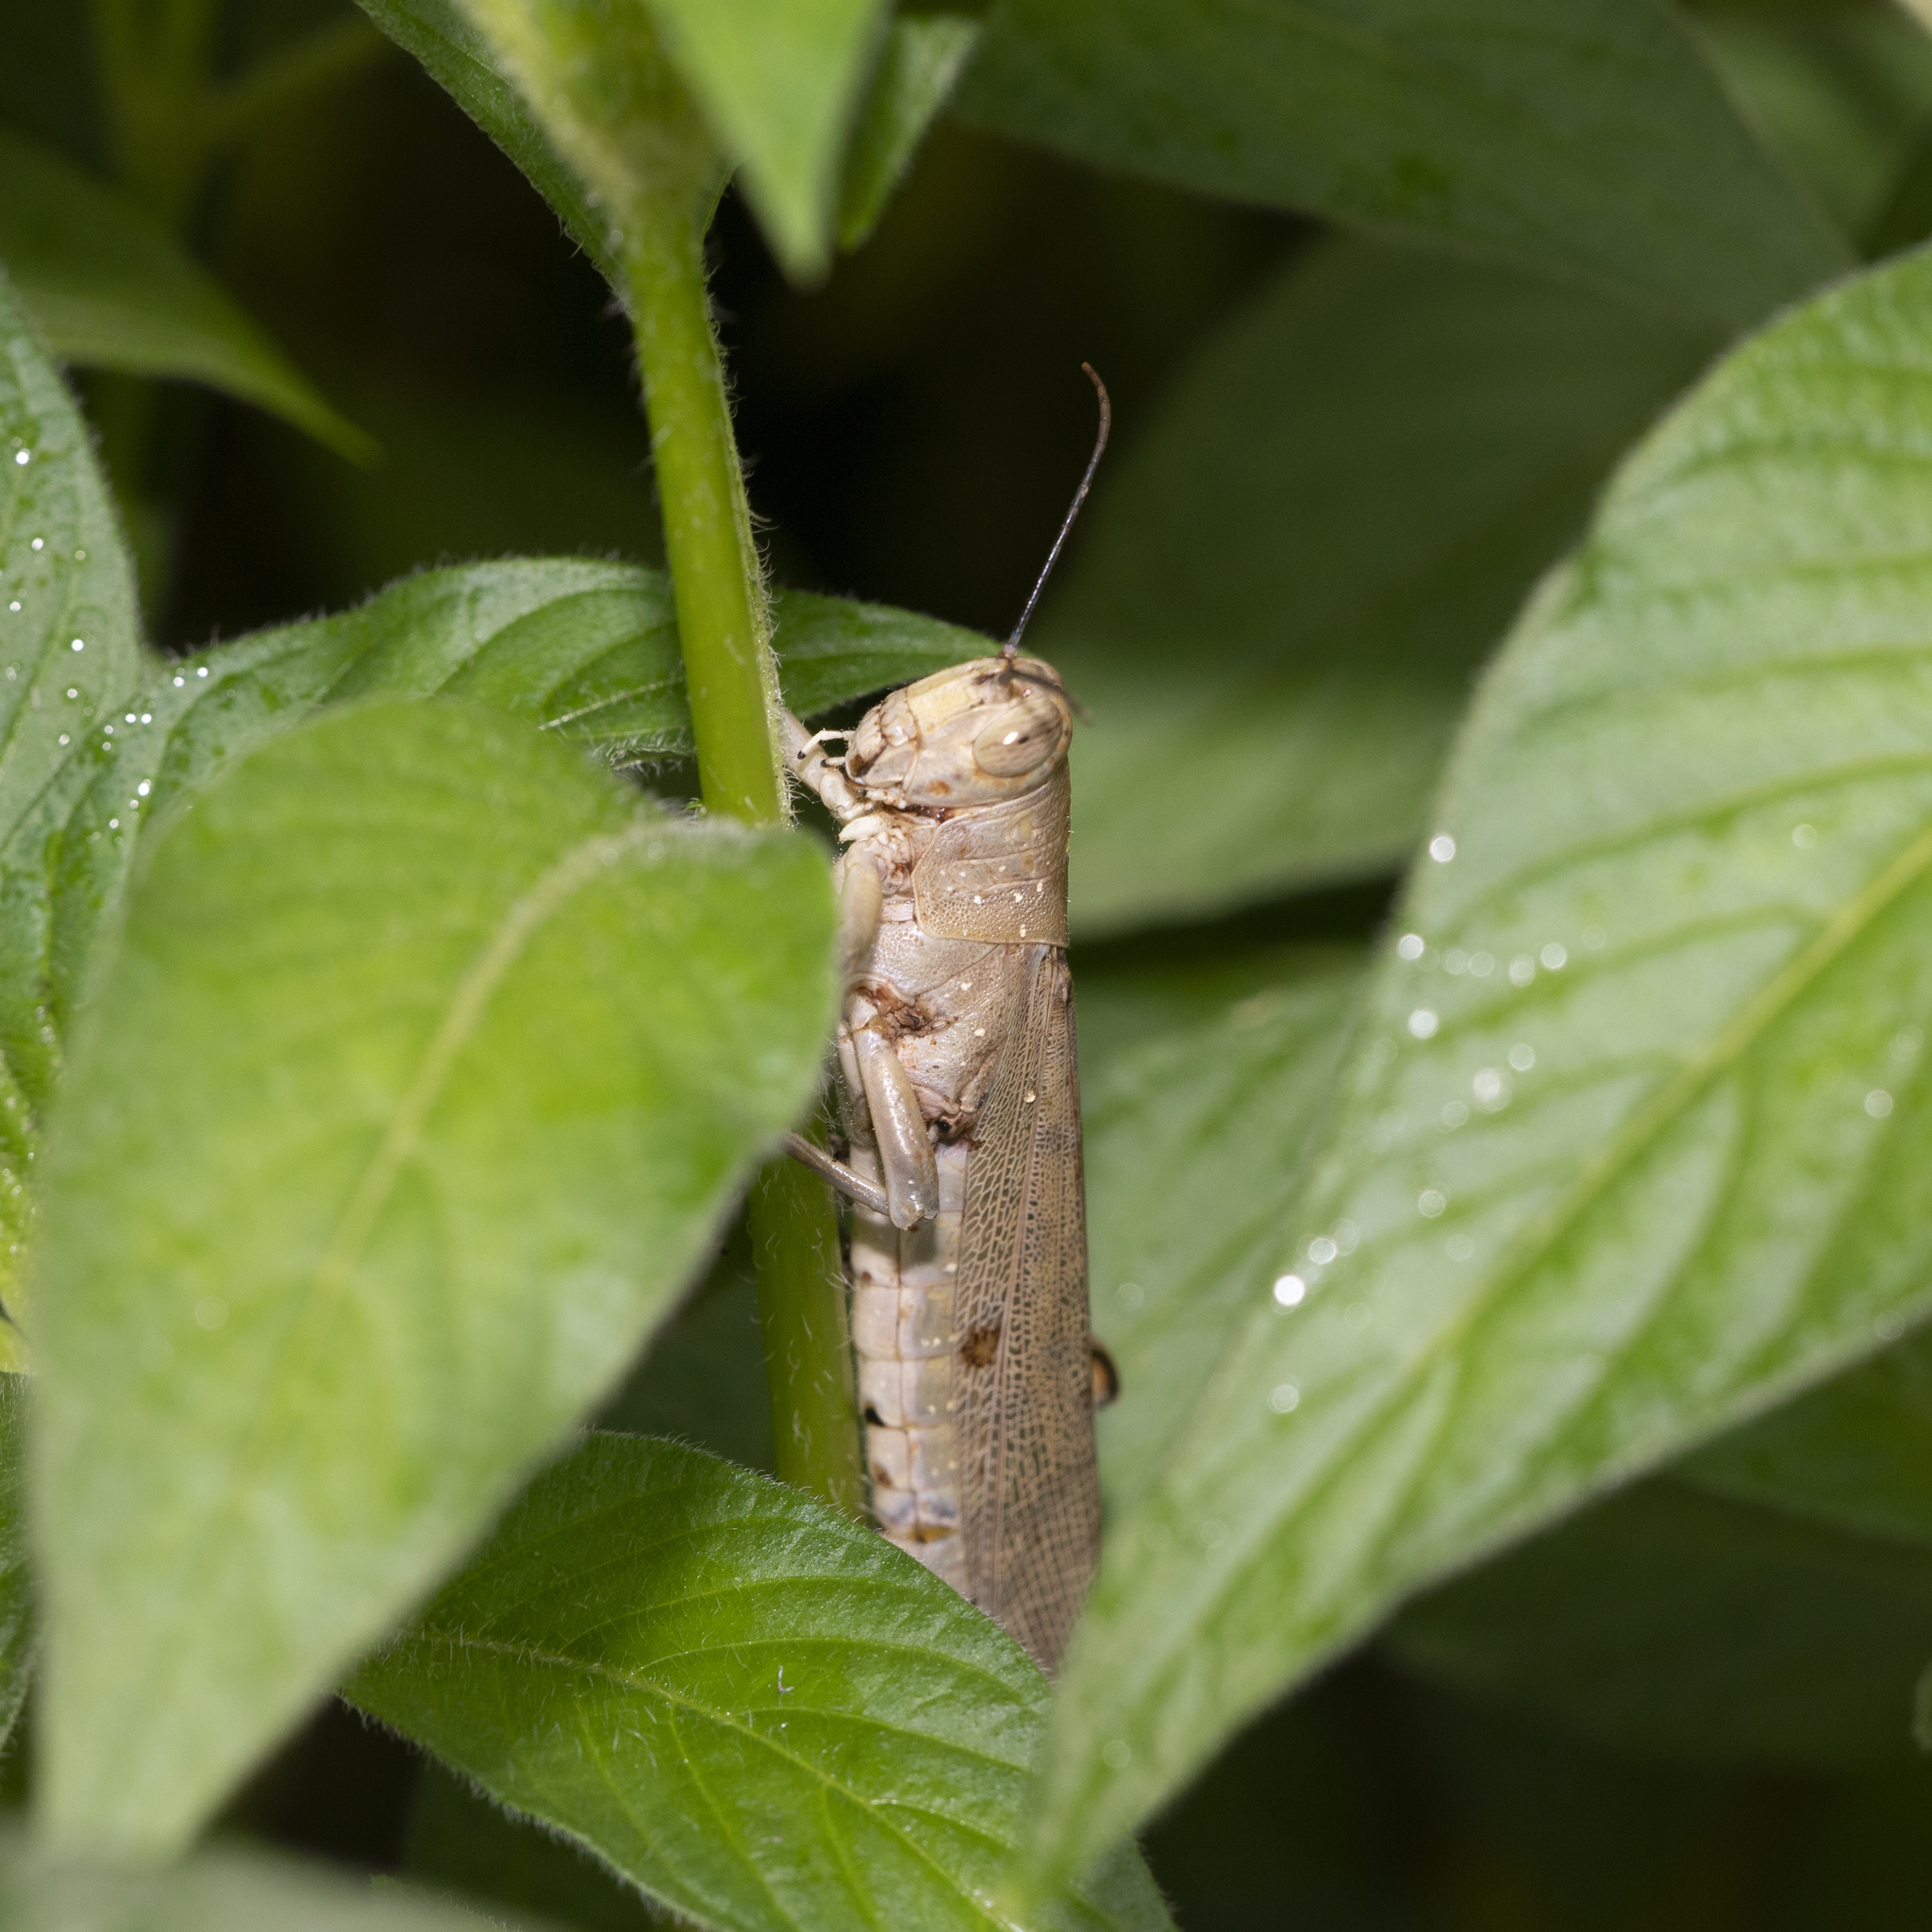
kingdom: Animalia
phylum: Arthropoda
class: Insecta
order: Orthoptera
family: Acrididae
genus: Valanga
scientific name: Valanga irregularis
